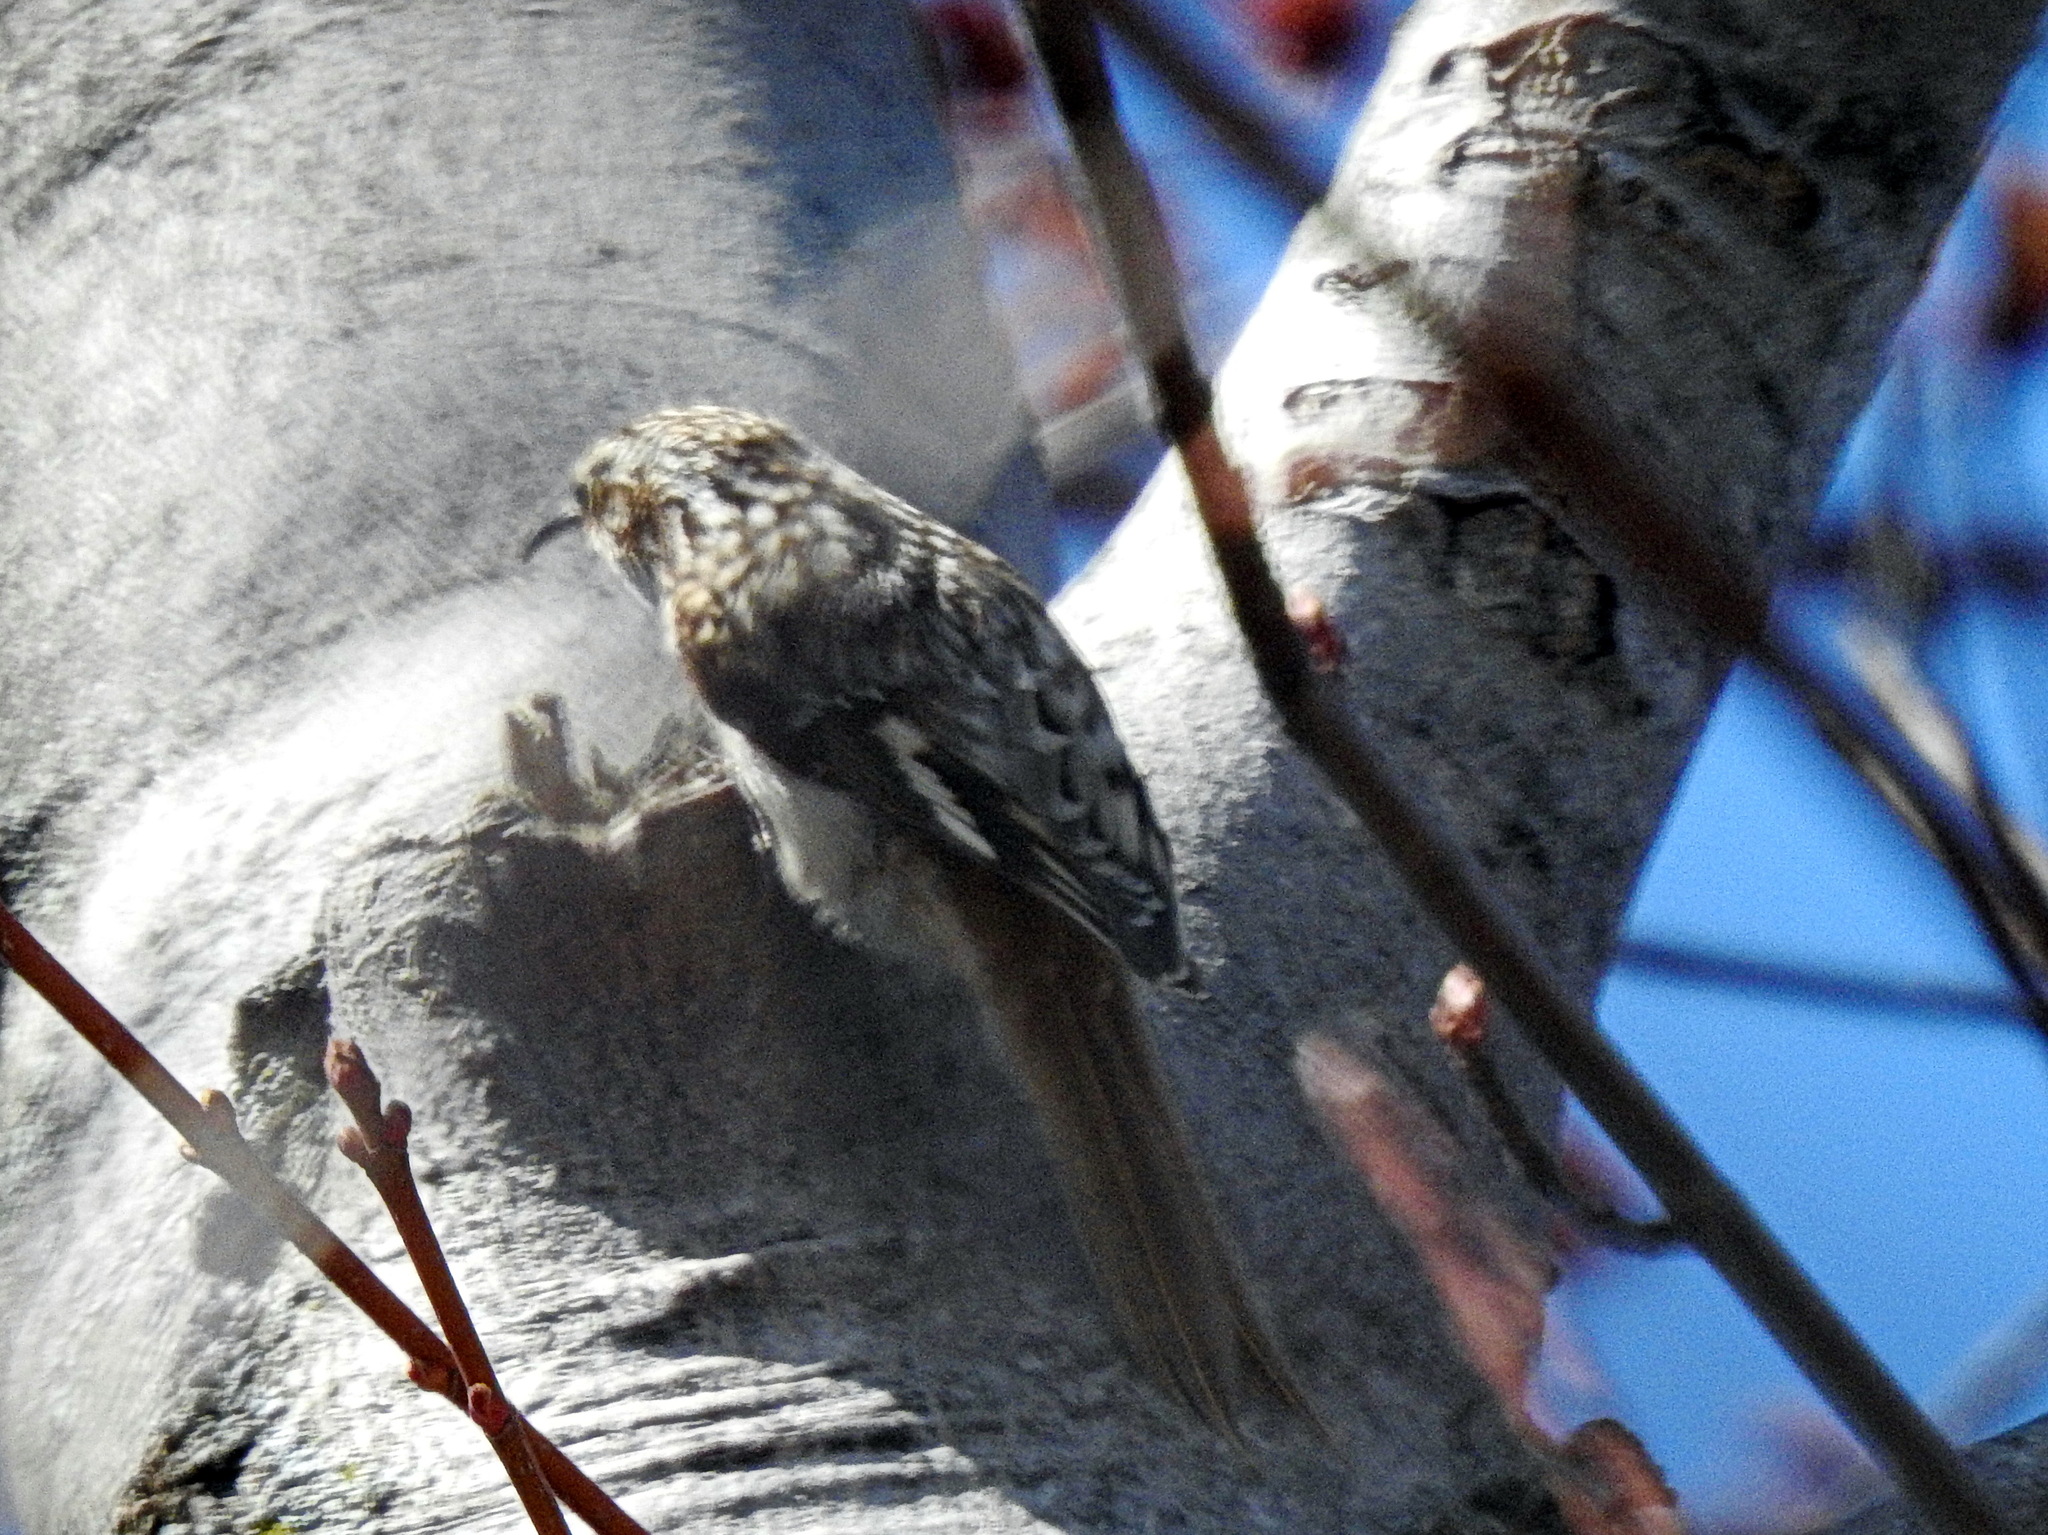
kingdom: Animalia
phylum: Chordata
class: Aves
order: Passeriformes
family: Certhiidae
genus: Certhia
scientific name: Certhia americana
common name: Brown creeper
